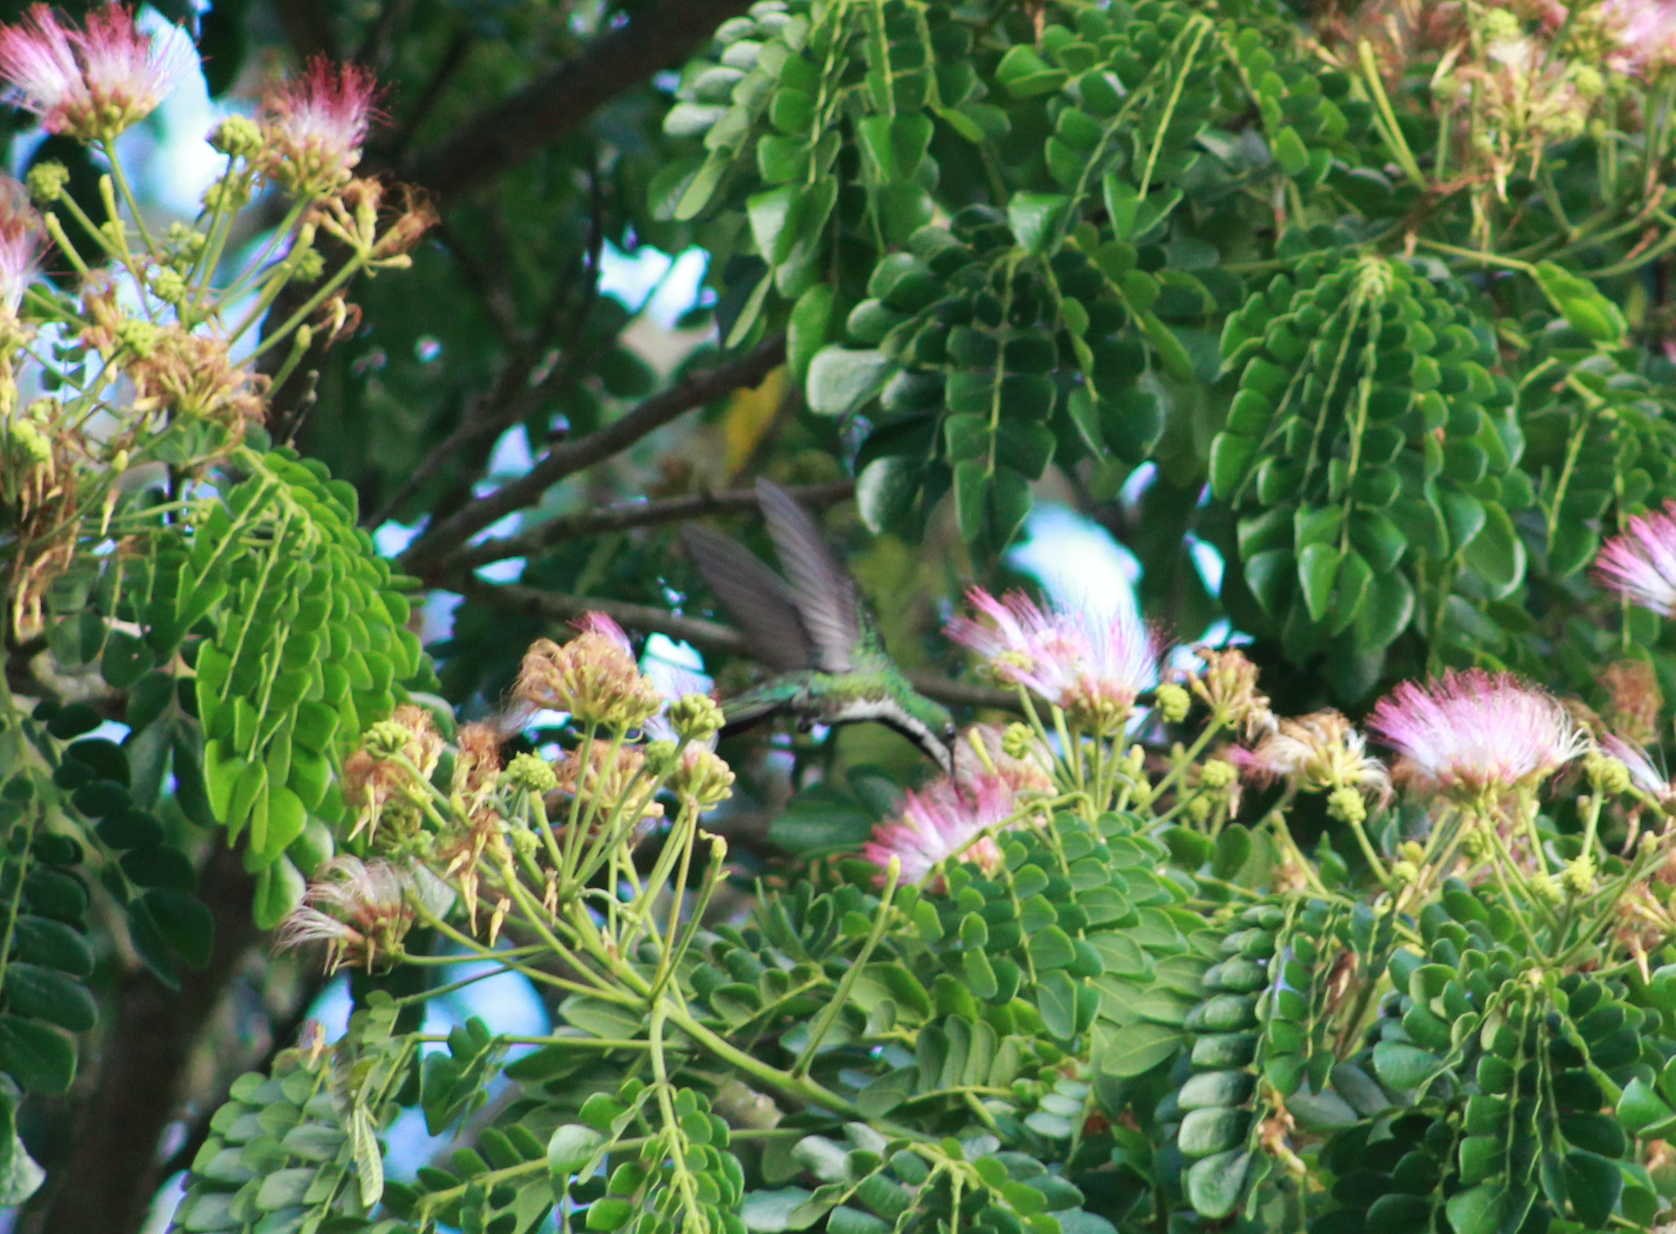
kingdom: Animalia
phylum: Chordata
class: Aves
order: Apodiformes
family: Trochilidae
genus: Anthracothorax
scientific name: Anthracothorax nigricollis
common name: Black-throated mango
